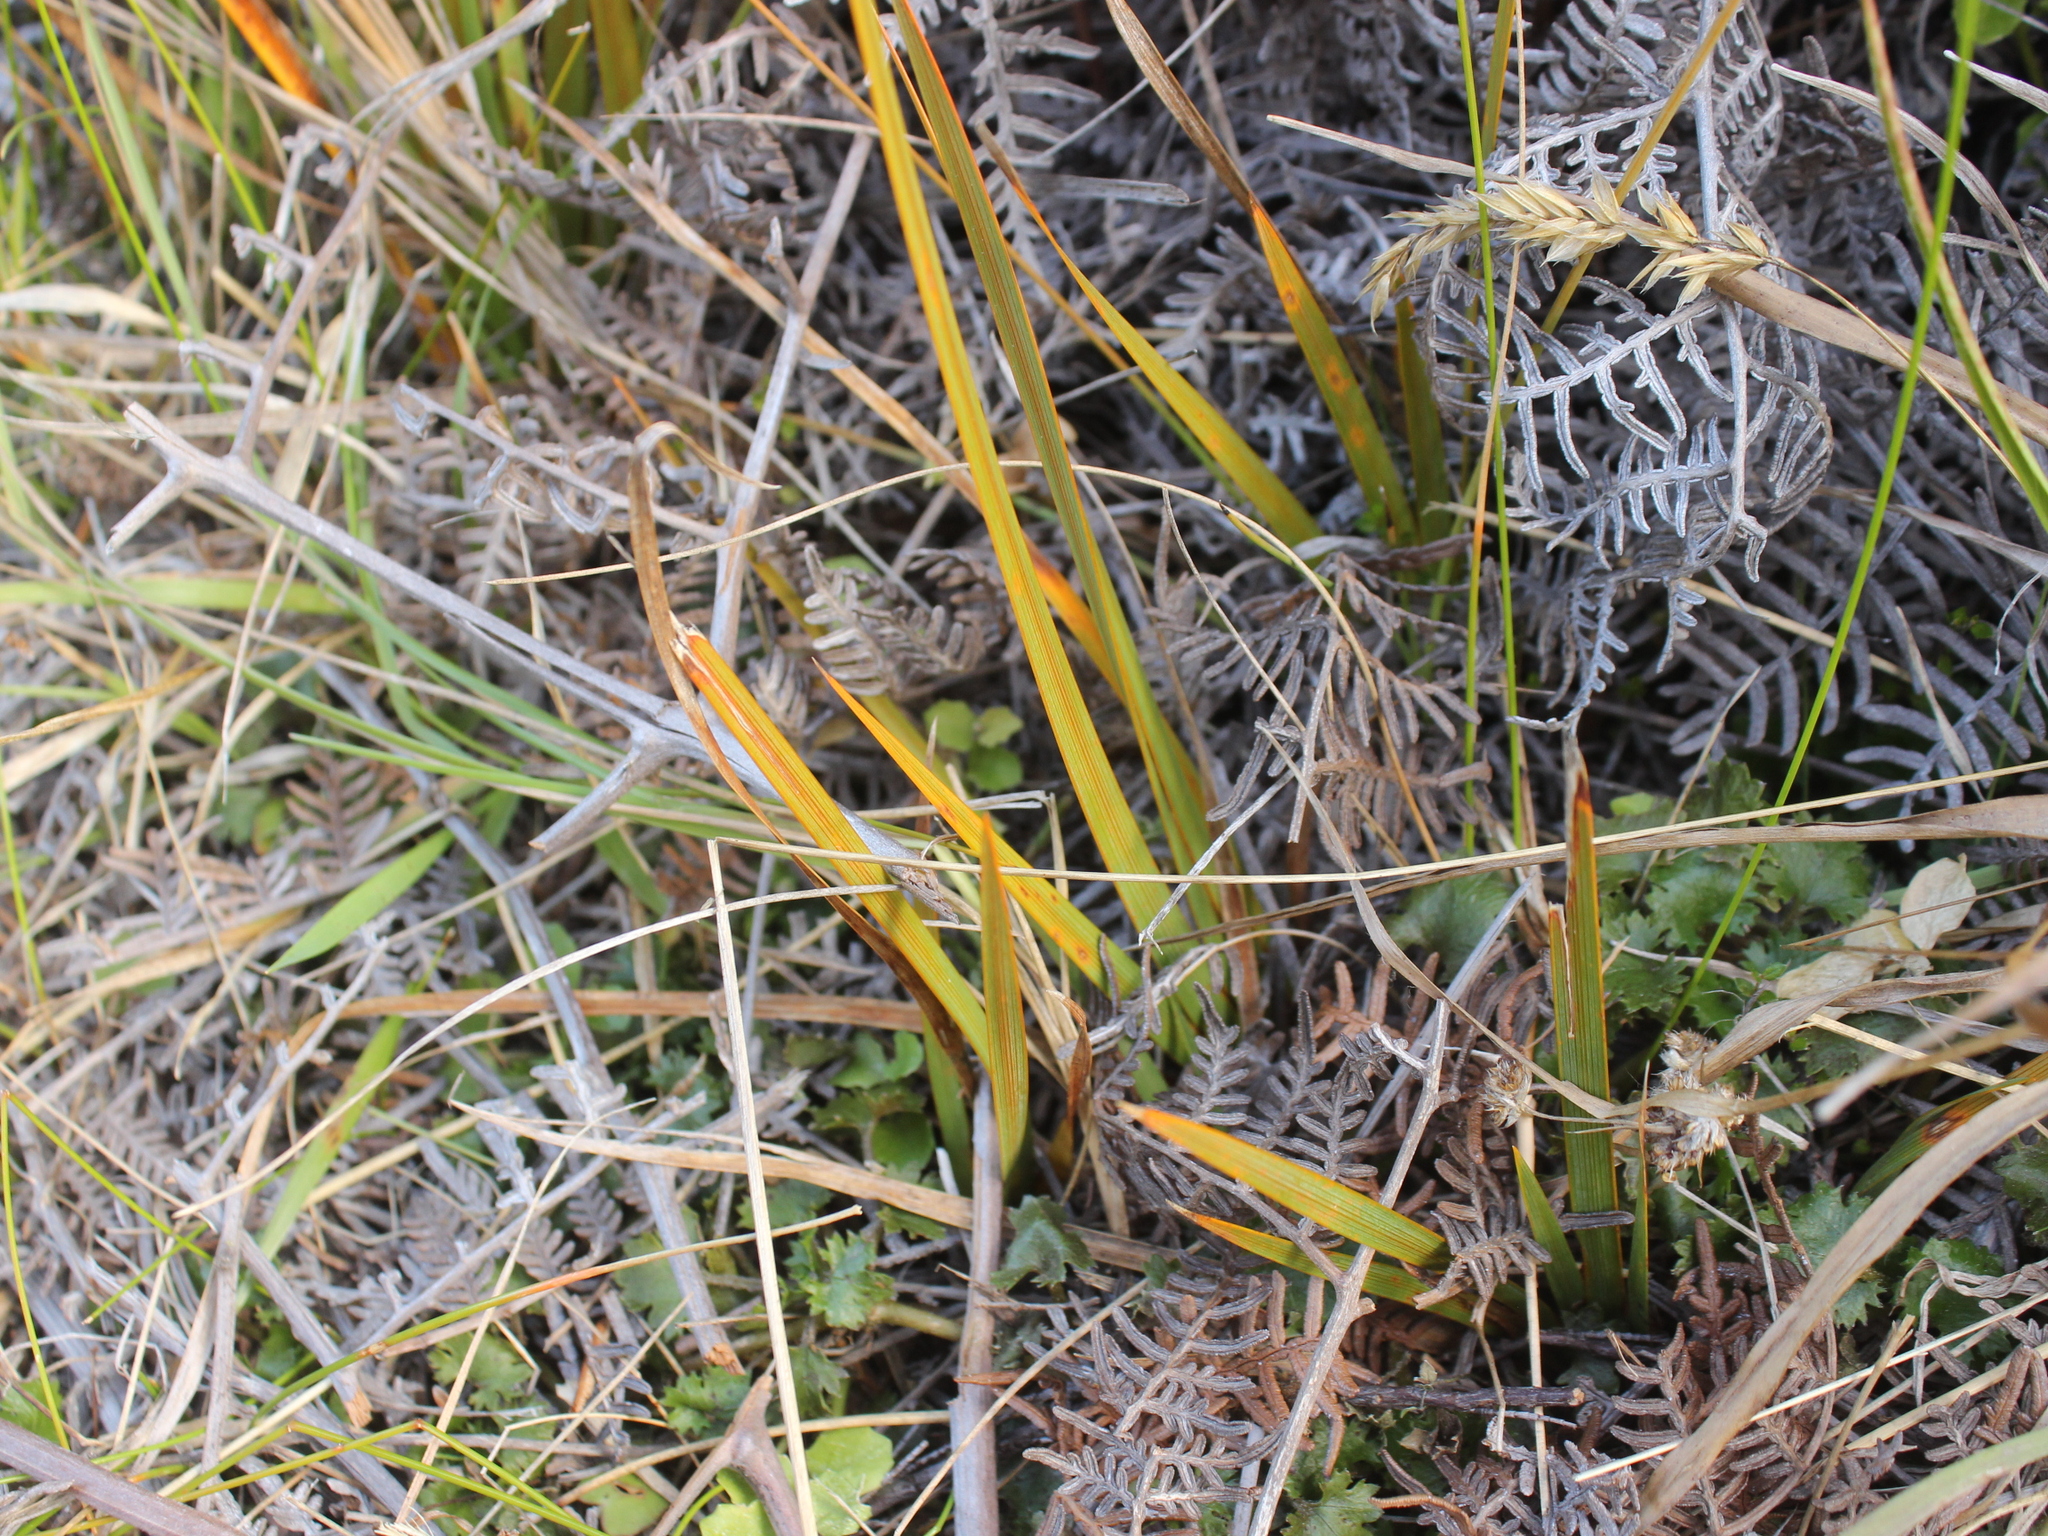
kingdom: Plantae
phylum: Tracheophyta
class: Liliopsida
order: Asparagales
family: Iridaceae
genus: Libertia
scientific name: Libertia peregrinans
